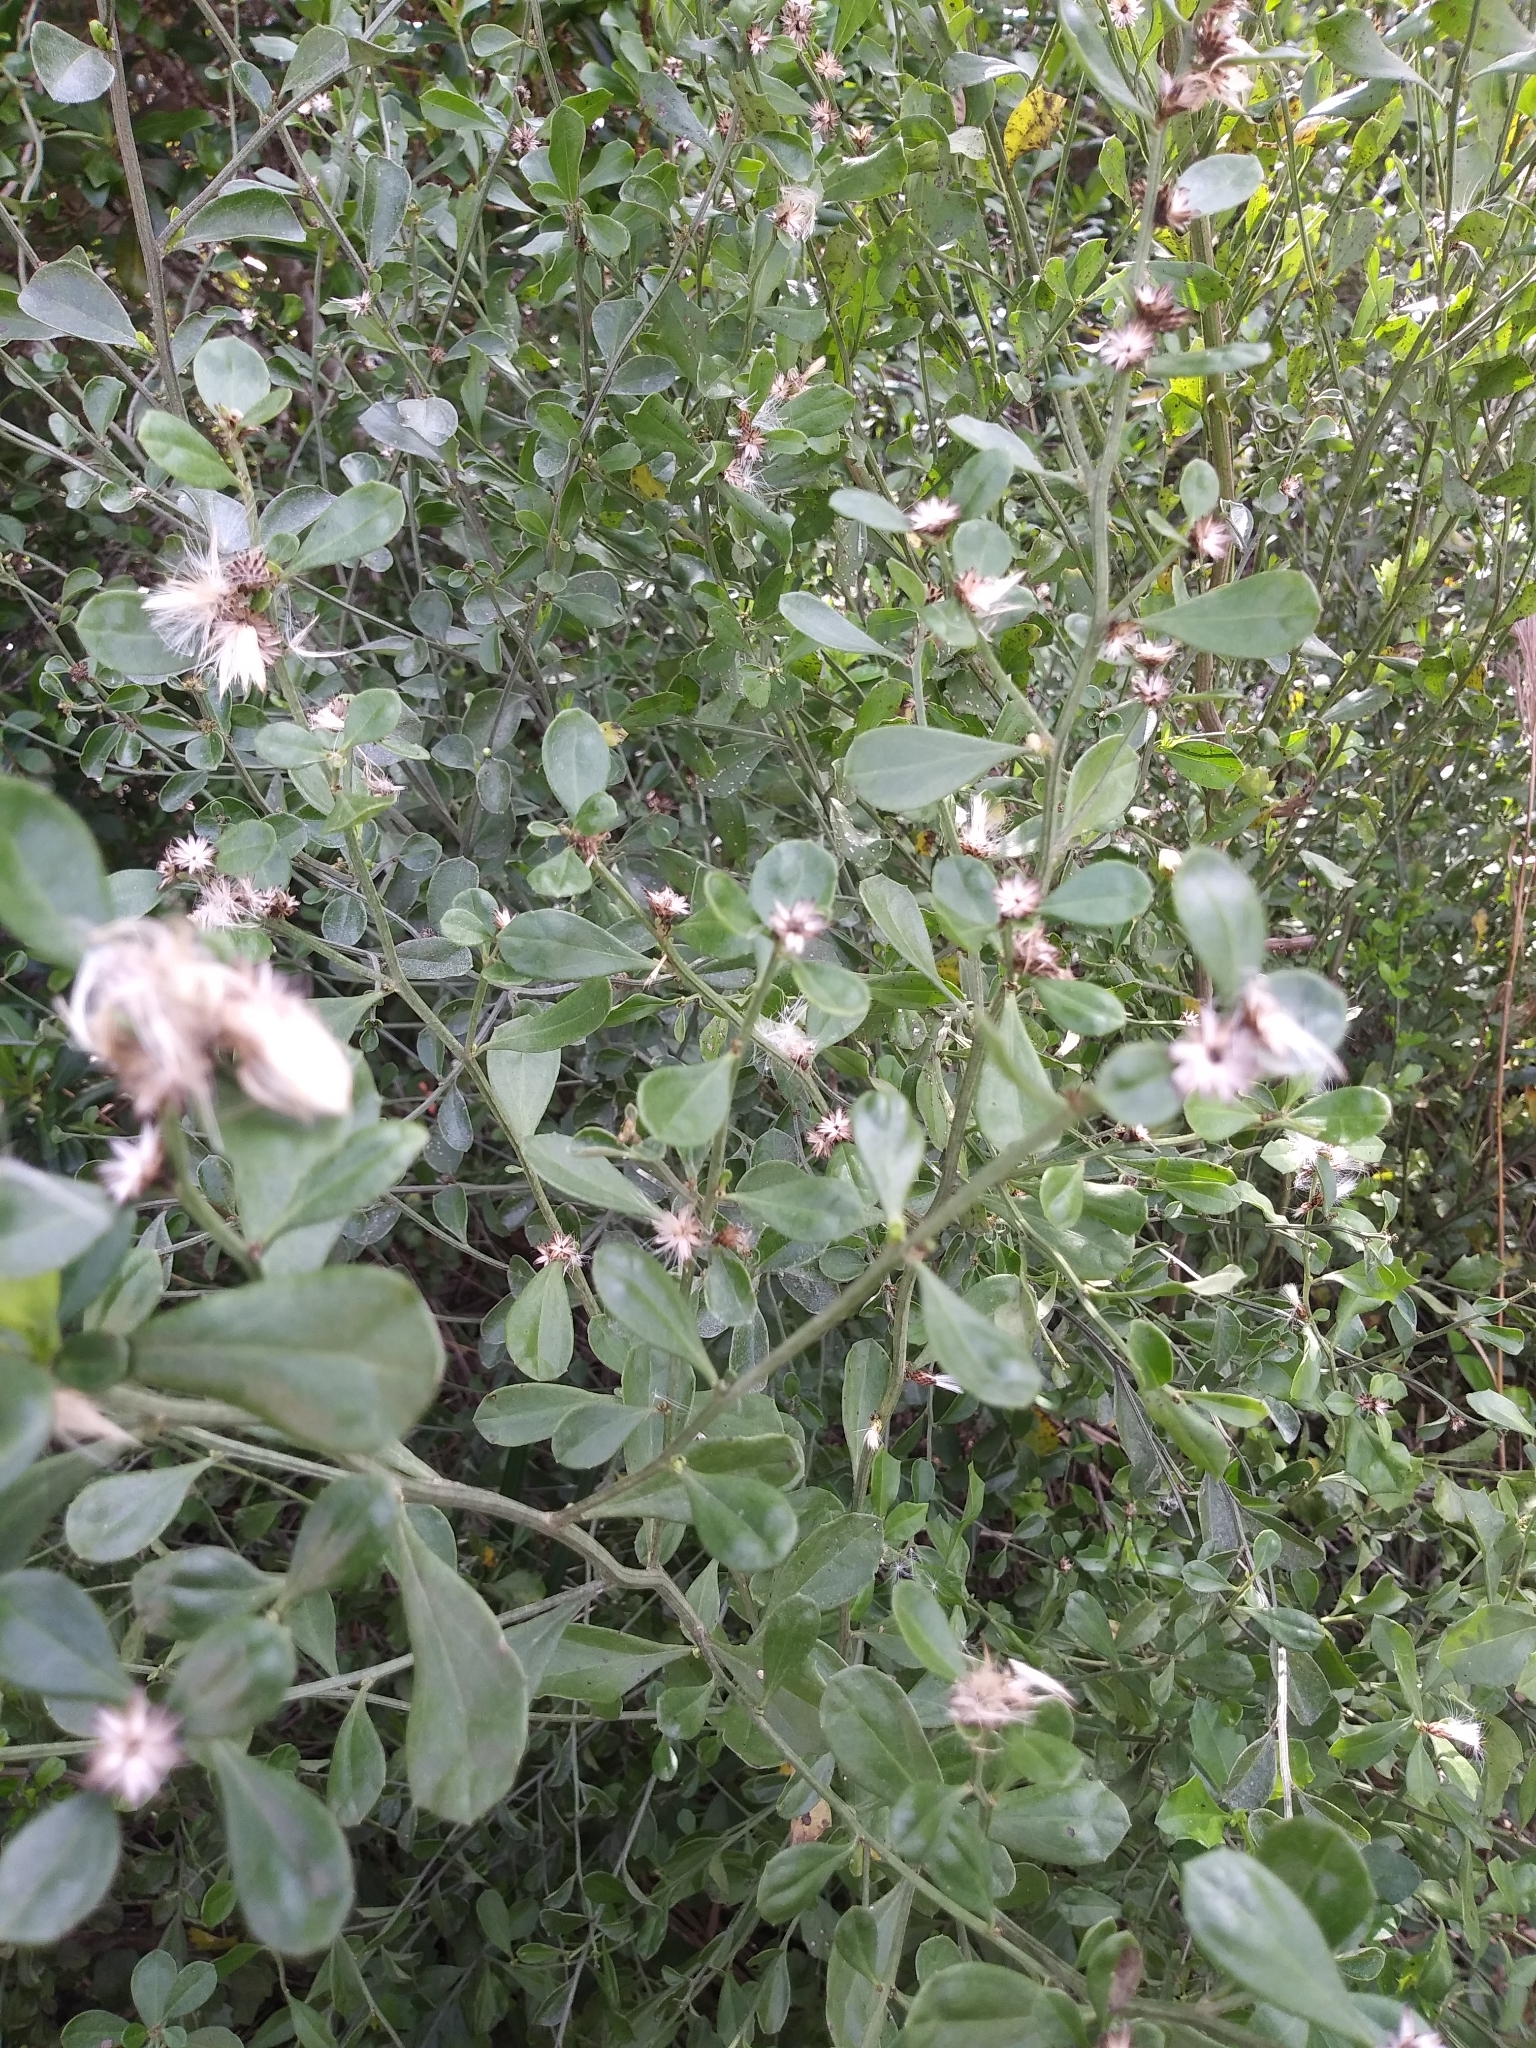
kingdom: Plantae
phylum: Tracheophyta
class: Magnoliopsida
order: Asterales
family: Asteraceae
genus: Baccharis
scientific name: Baccharis glomeruliflora
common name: Silverling groundsel bush
